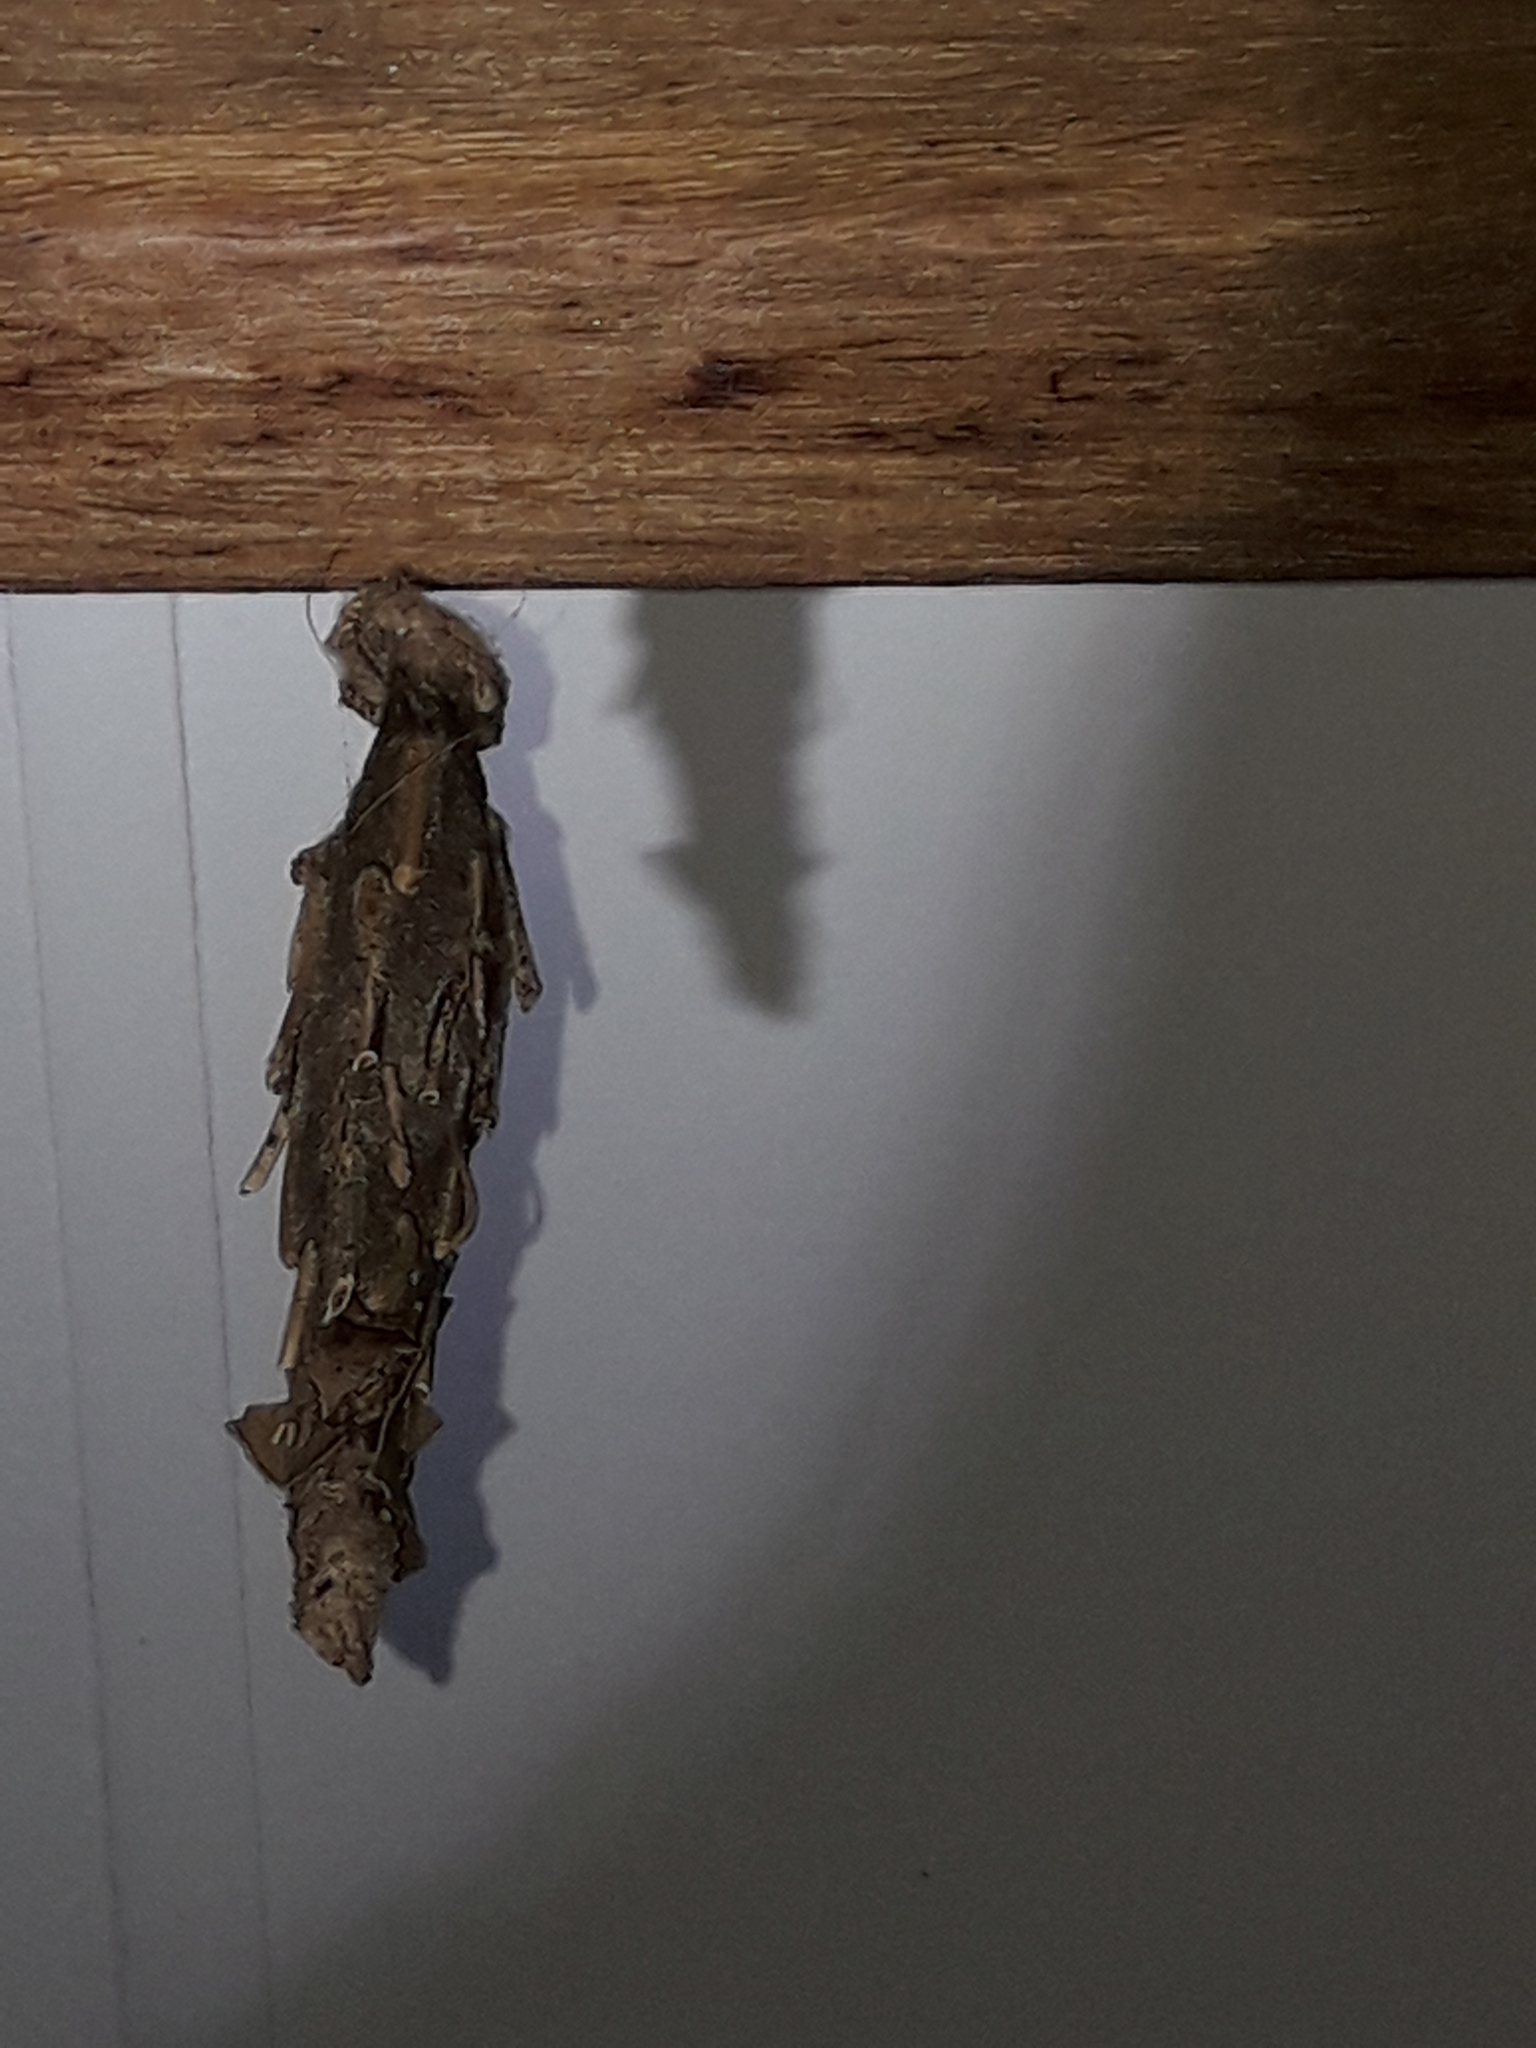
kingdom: Animalia
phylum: Arthropoda
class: Insecta
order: Lepidoptera
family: Psychidae
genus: Metura
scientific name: Metura falcata
